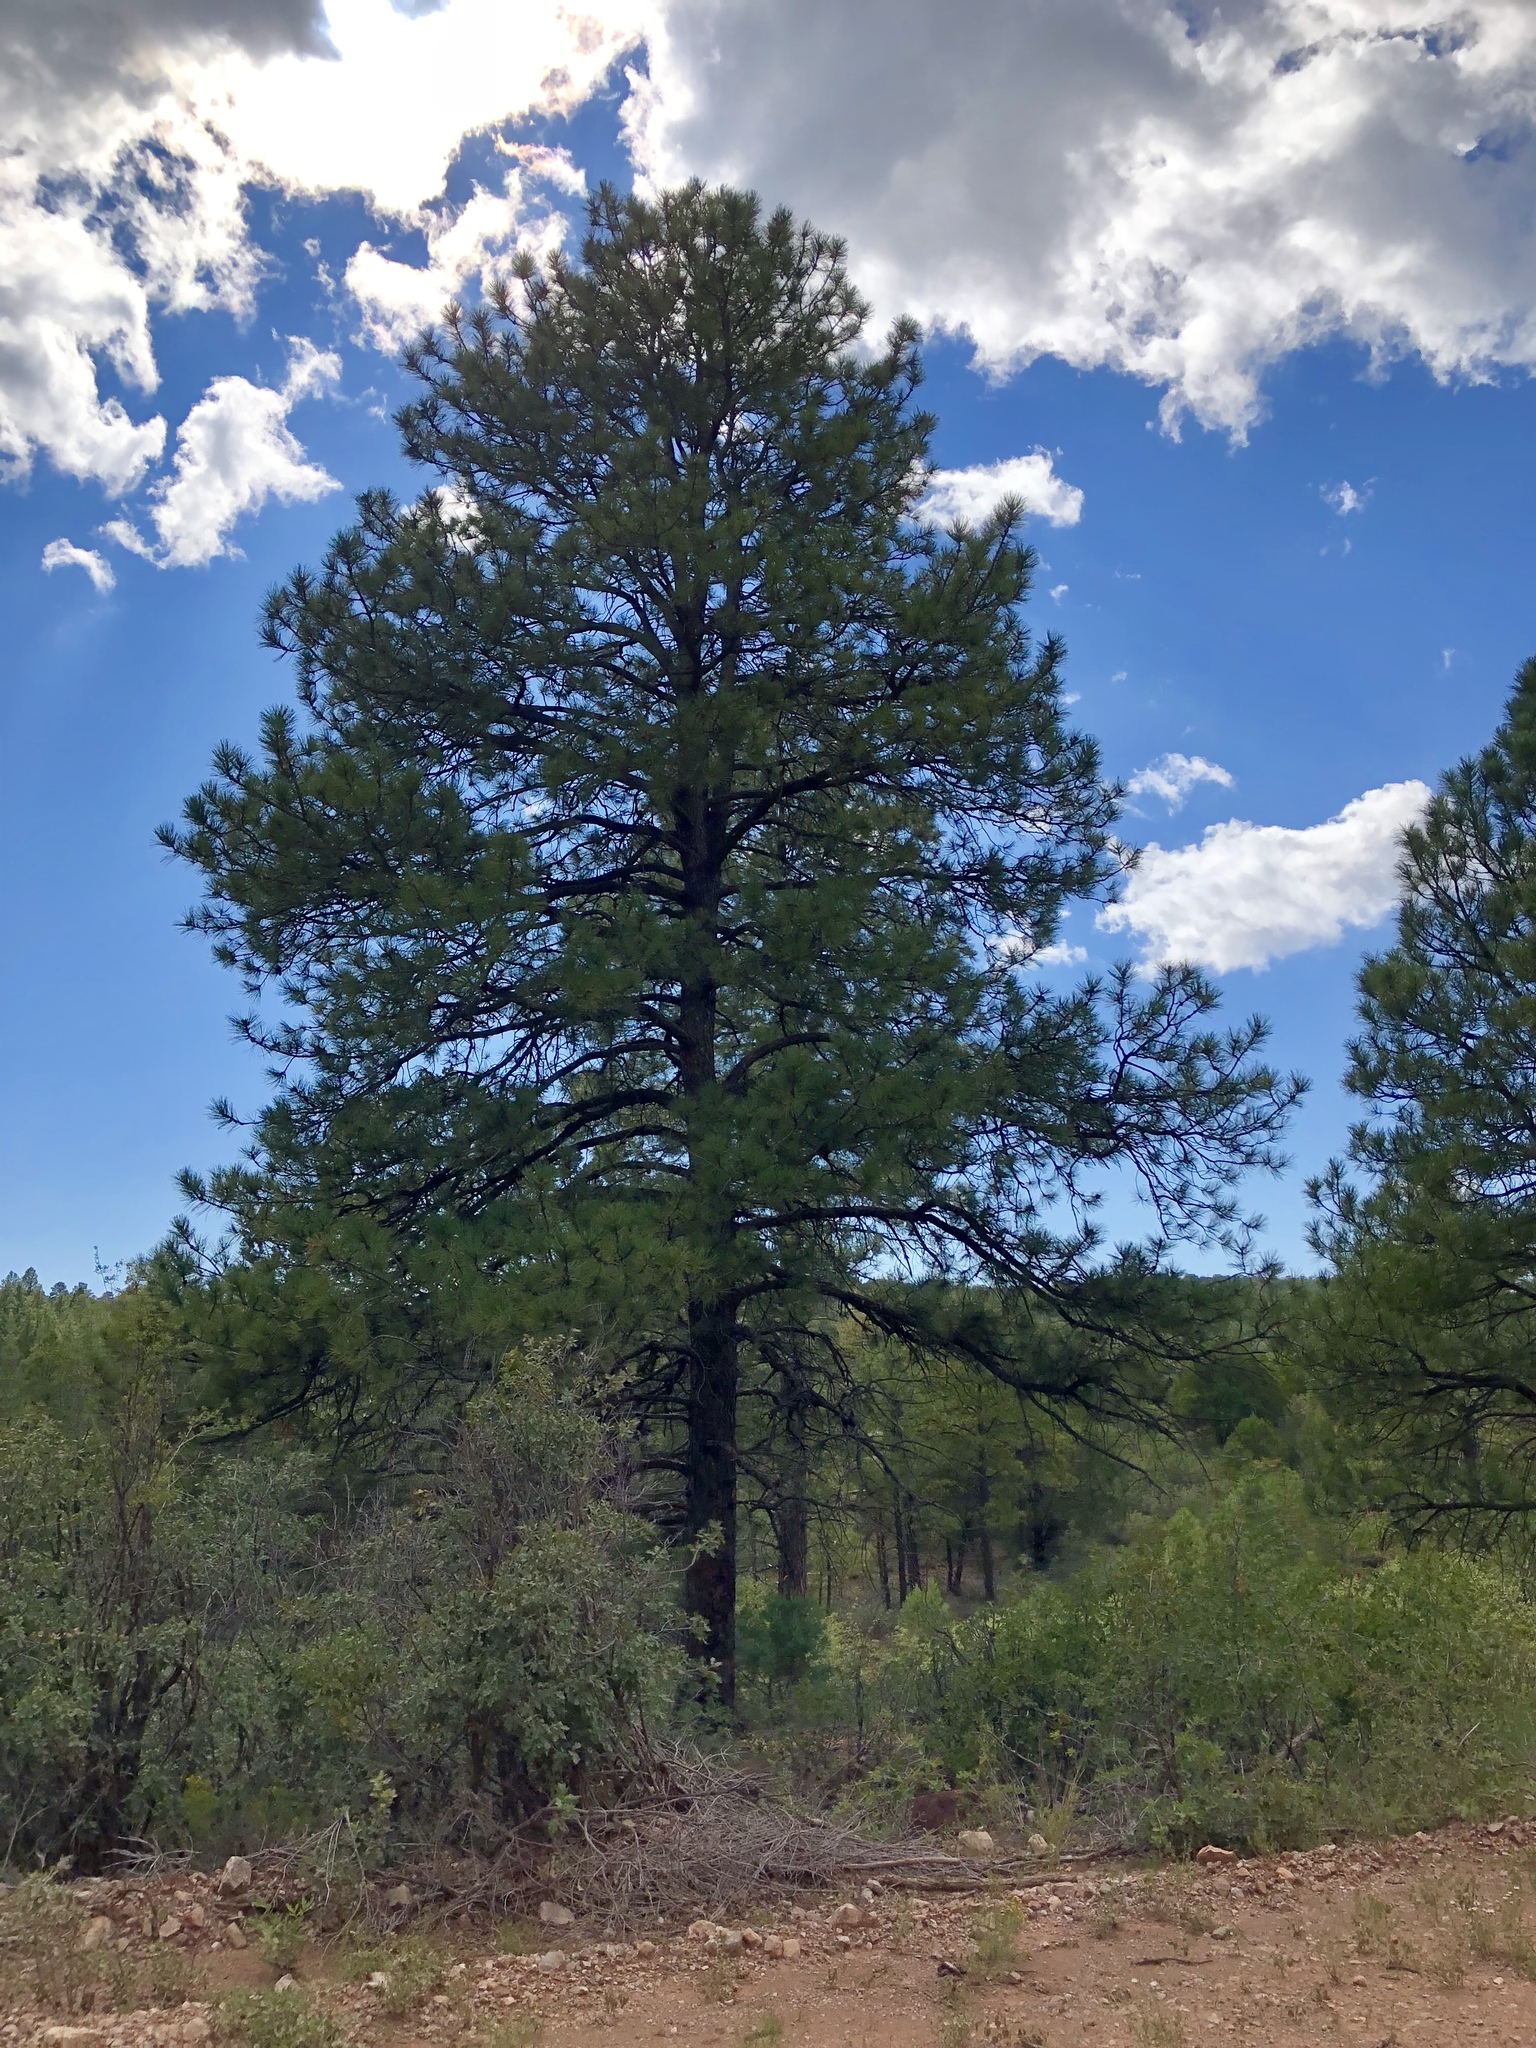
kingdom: Plantae
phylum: Tracheophyta
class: Pinopsida
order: Pinales
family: Pinaceae
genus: Pinus
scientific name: Pinus ponderosa
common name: Western yellow-pine
